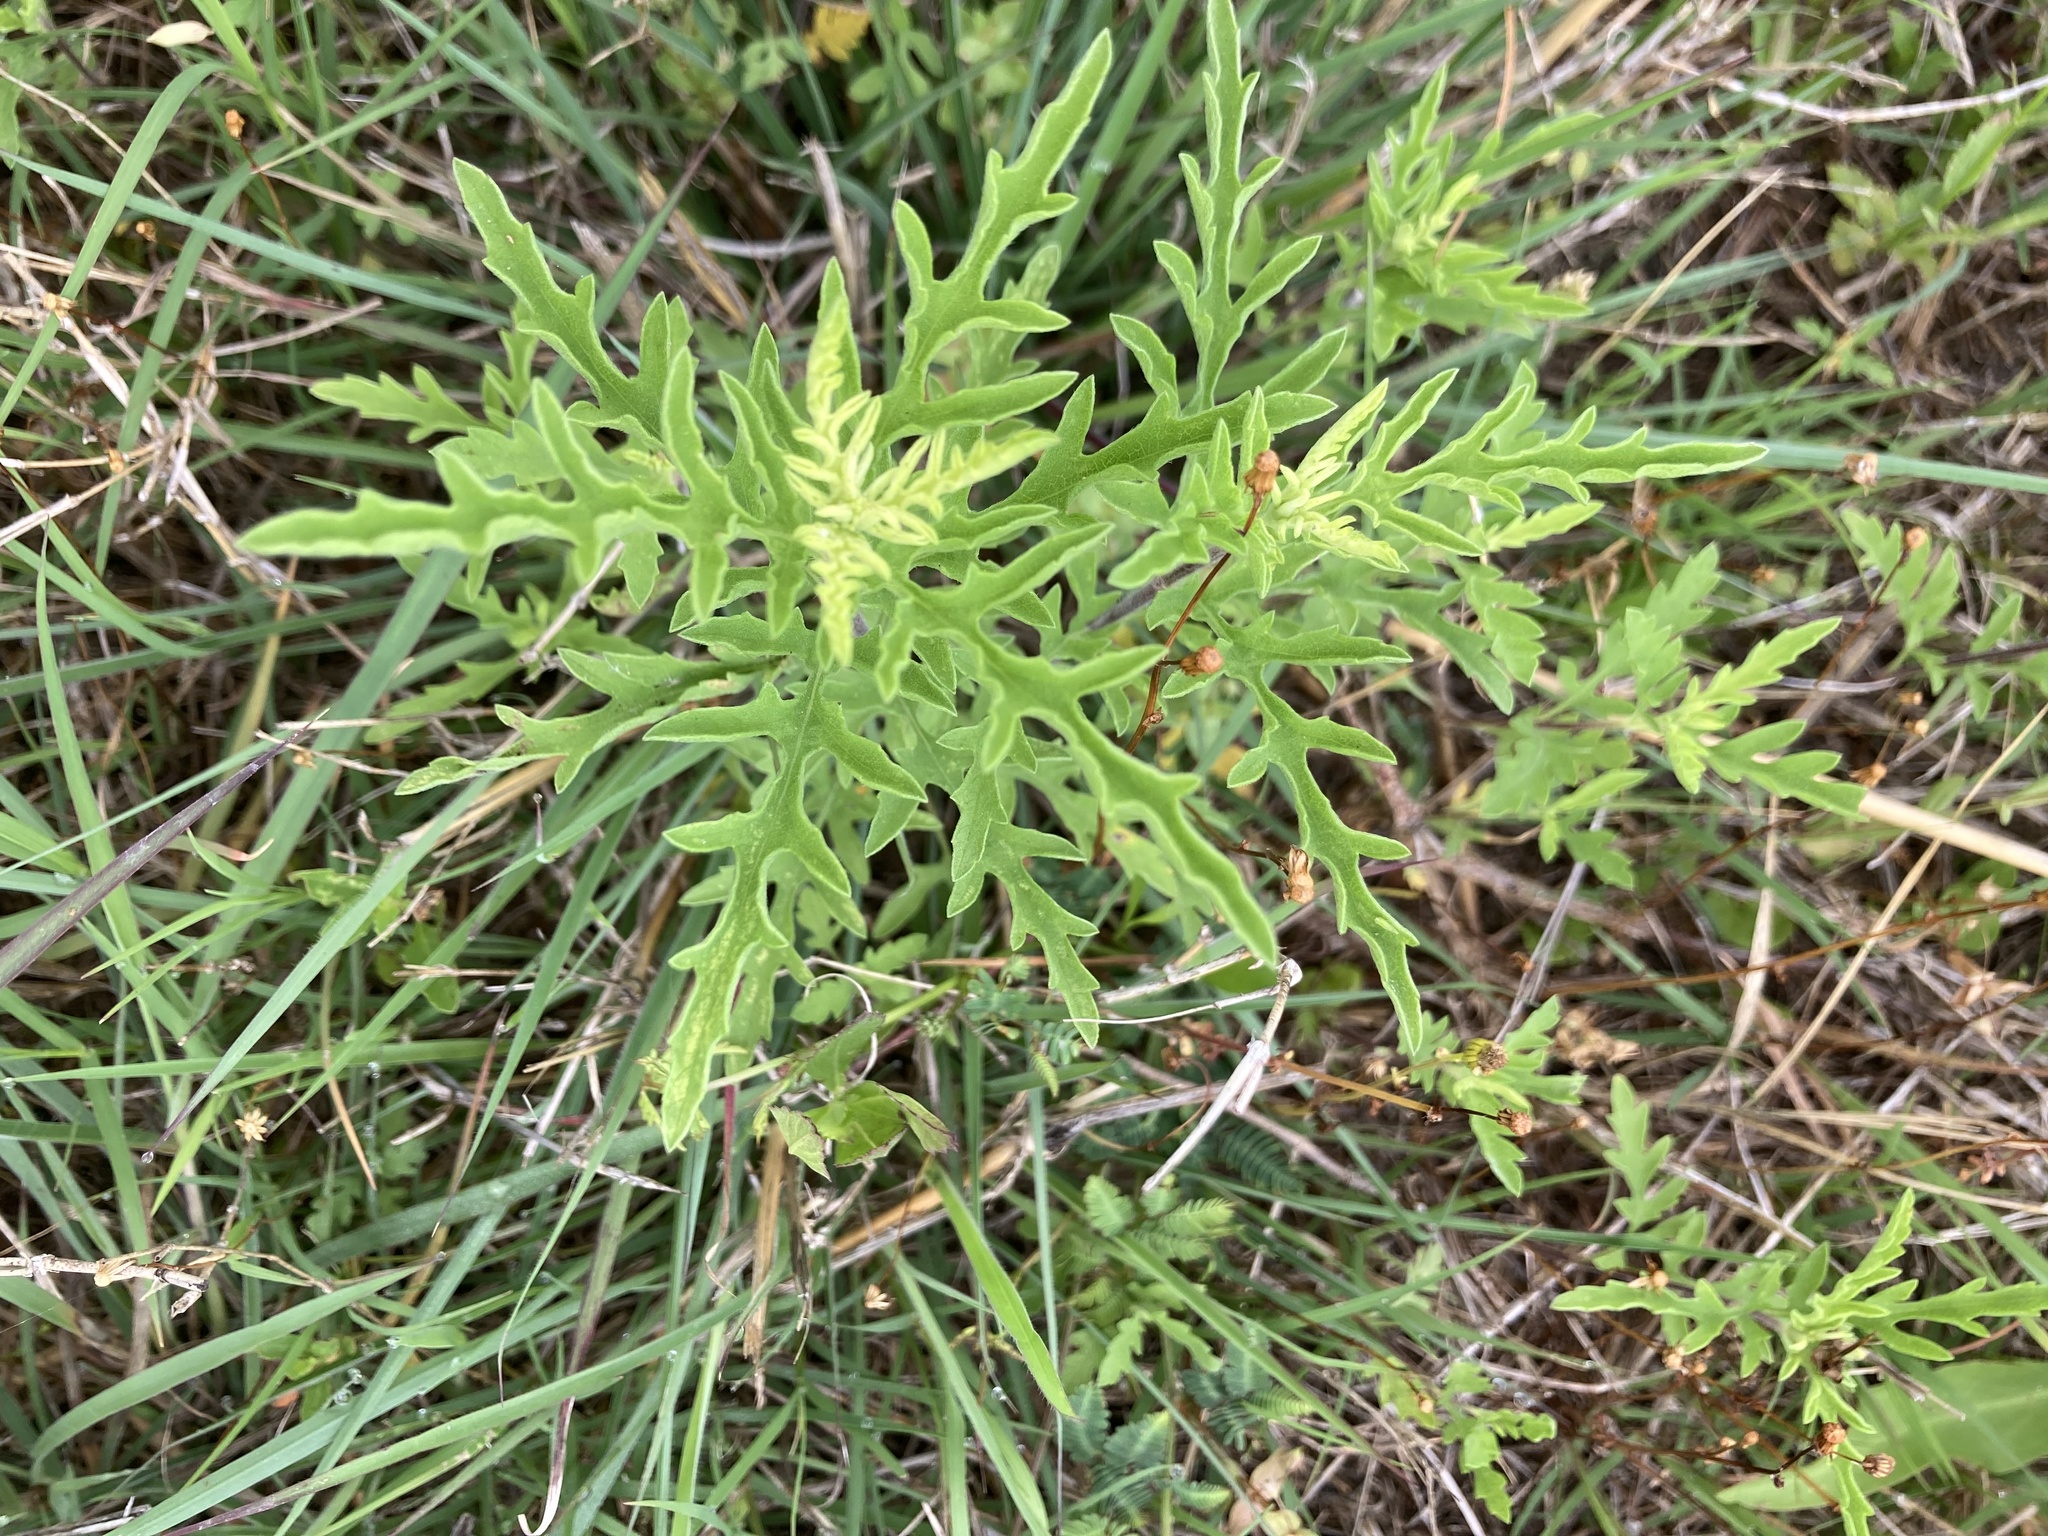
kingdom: Plantae
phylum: Tracheophyta
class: Magnoliopsida
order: Asterales
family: Asteraceae
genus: Ambrosia
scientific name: Ambrosia psilostachya
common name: Perennial ragweed
